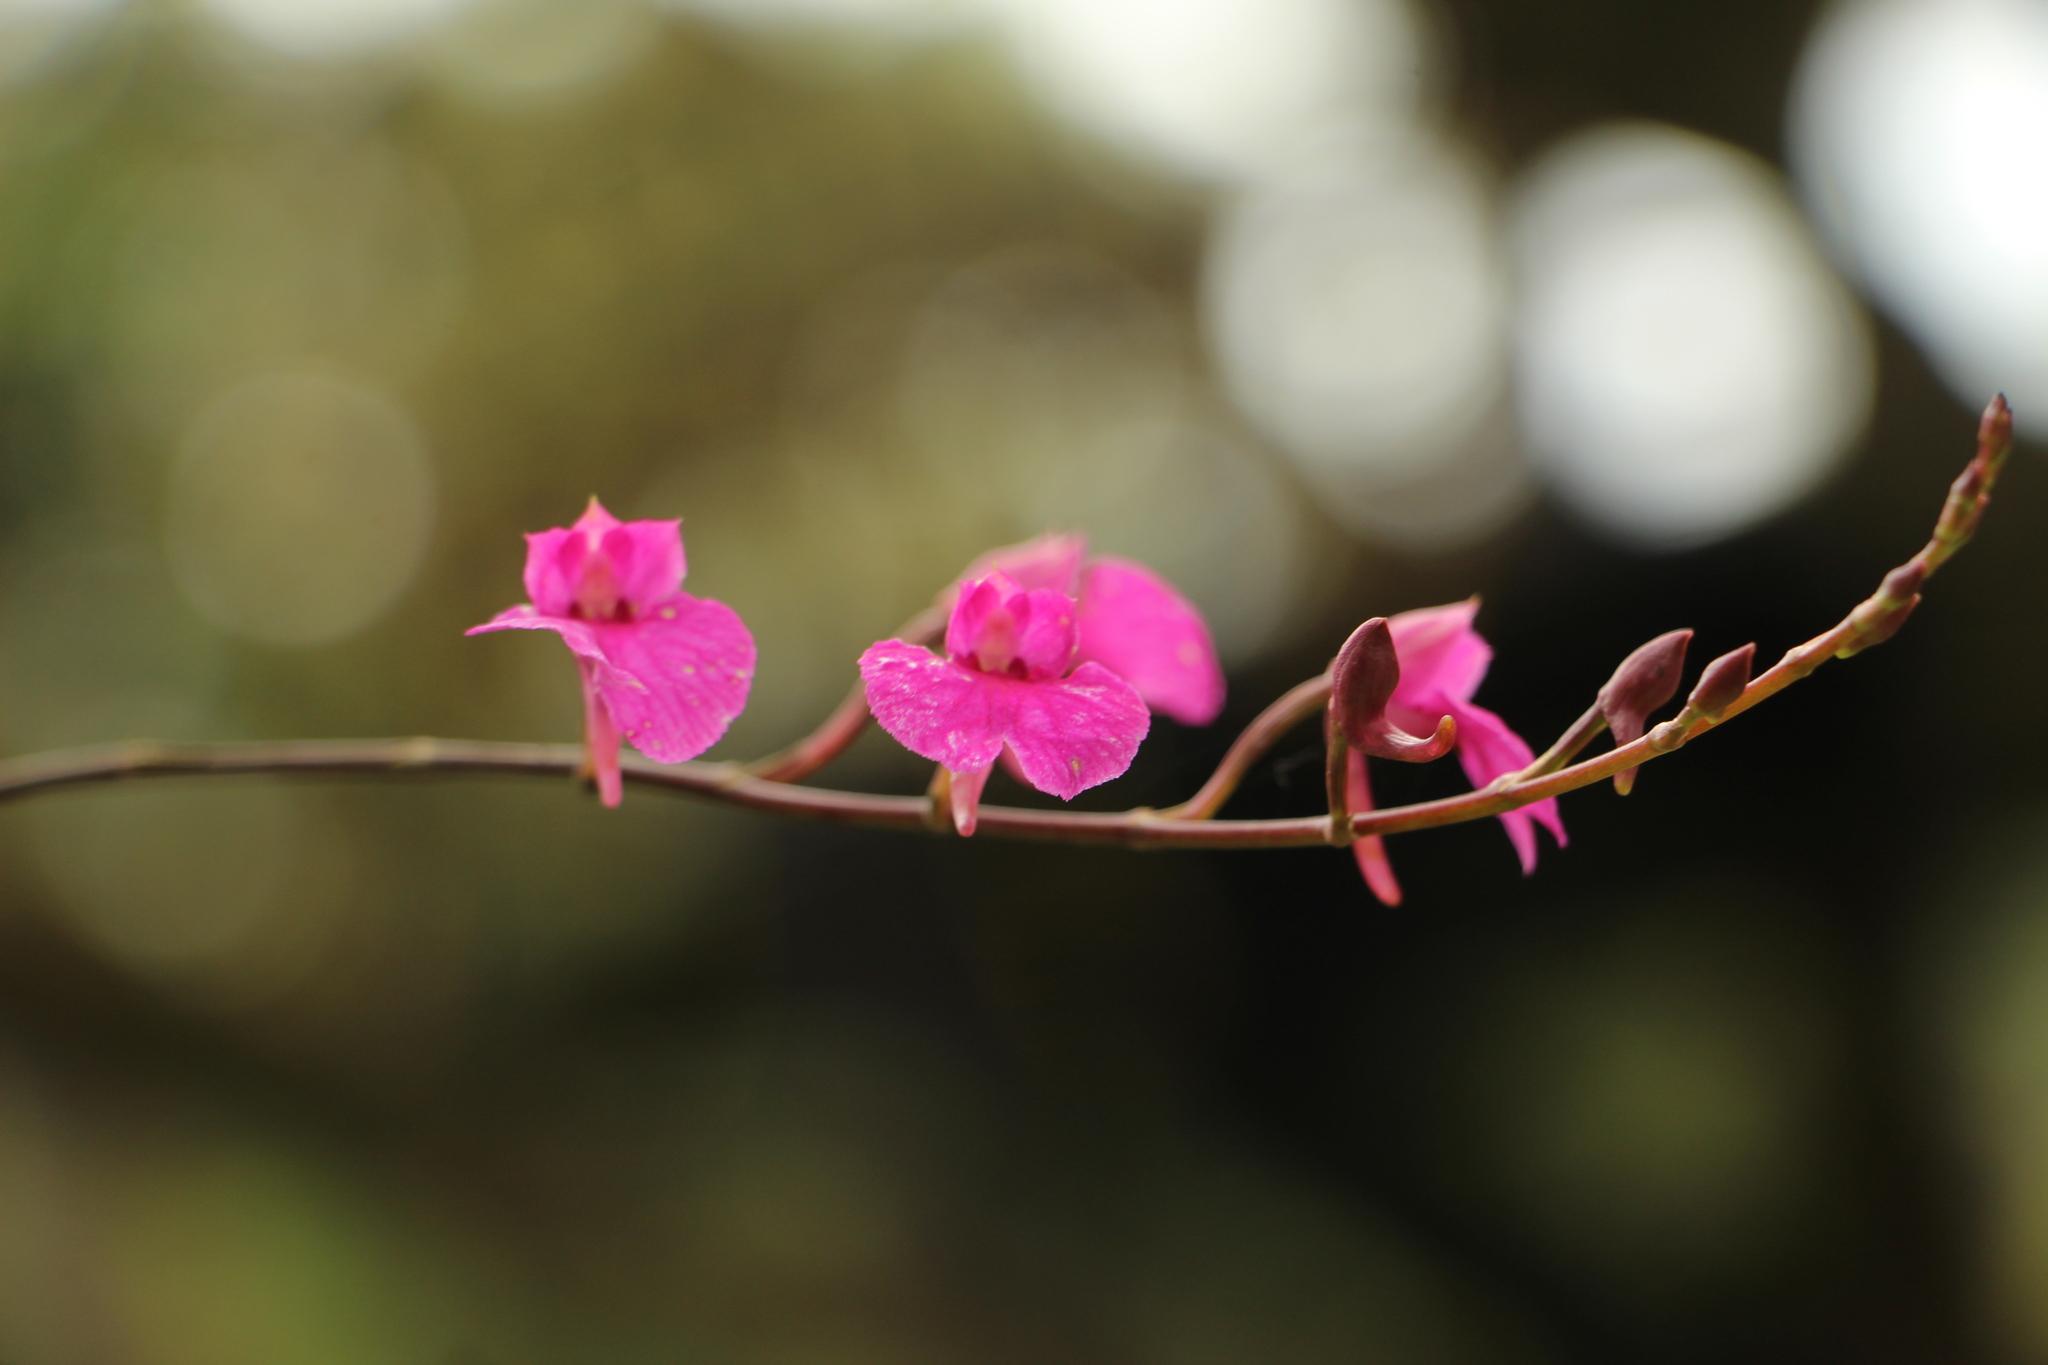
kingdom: Plantae
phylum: Tracheophyta
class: Liliopsida
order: Asparagales
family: Orchidaceae
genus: Comparettia
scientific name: Comparettia falcata
